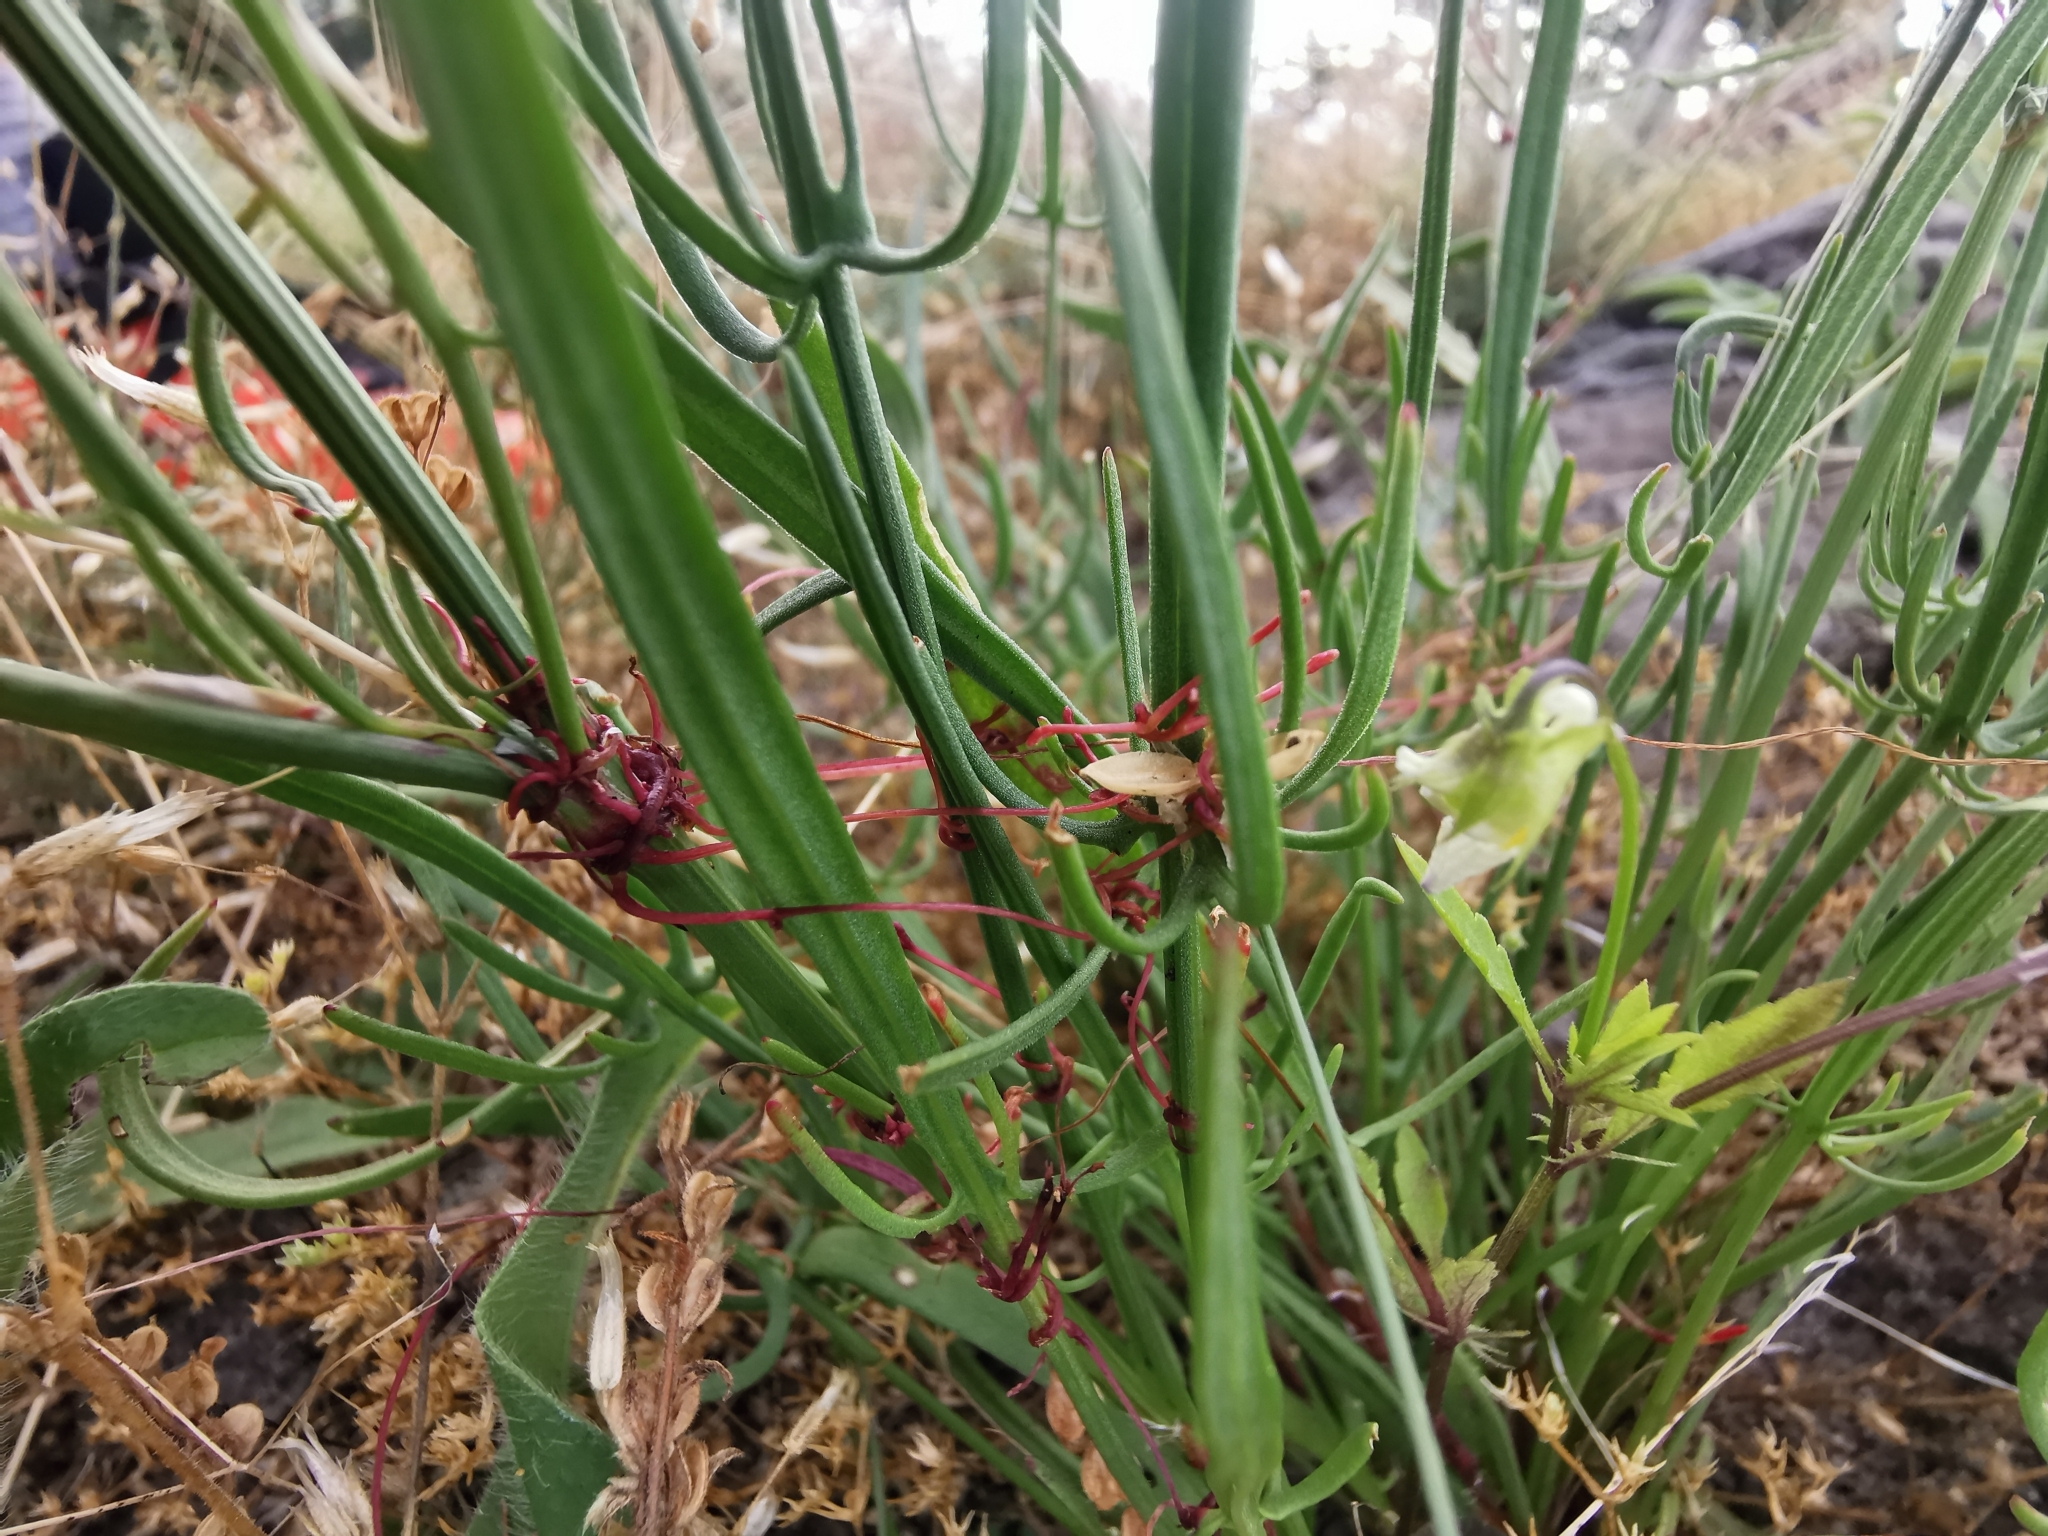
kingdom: Plantae
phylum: Tracheophyta
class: Magnoliopsida
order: Solanales
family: Convolvulaceae
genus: Cuscuta
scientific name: Cuscuta epithymum
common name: Clover dodder
